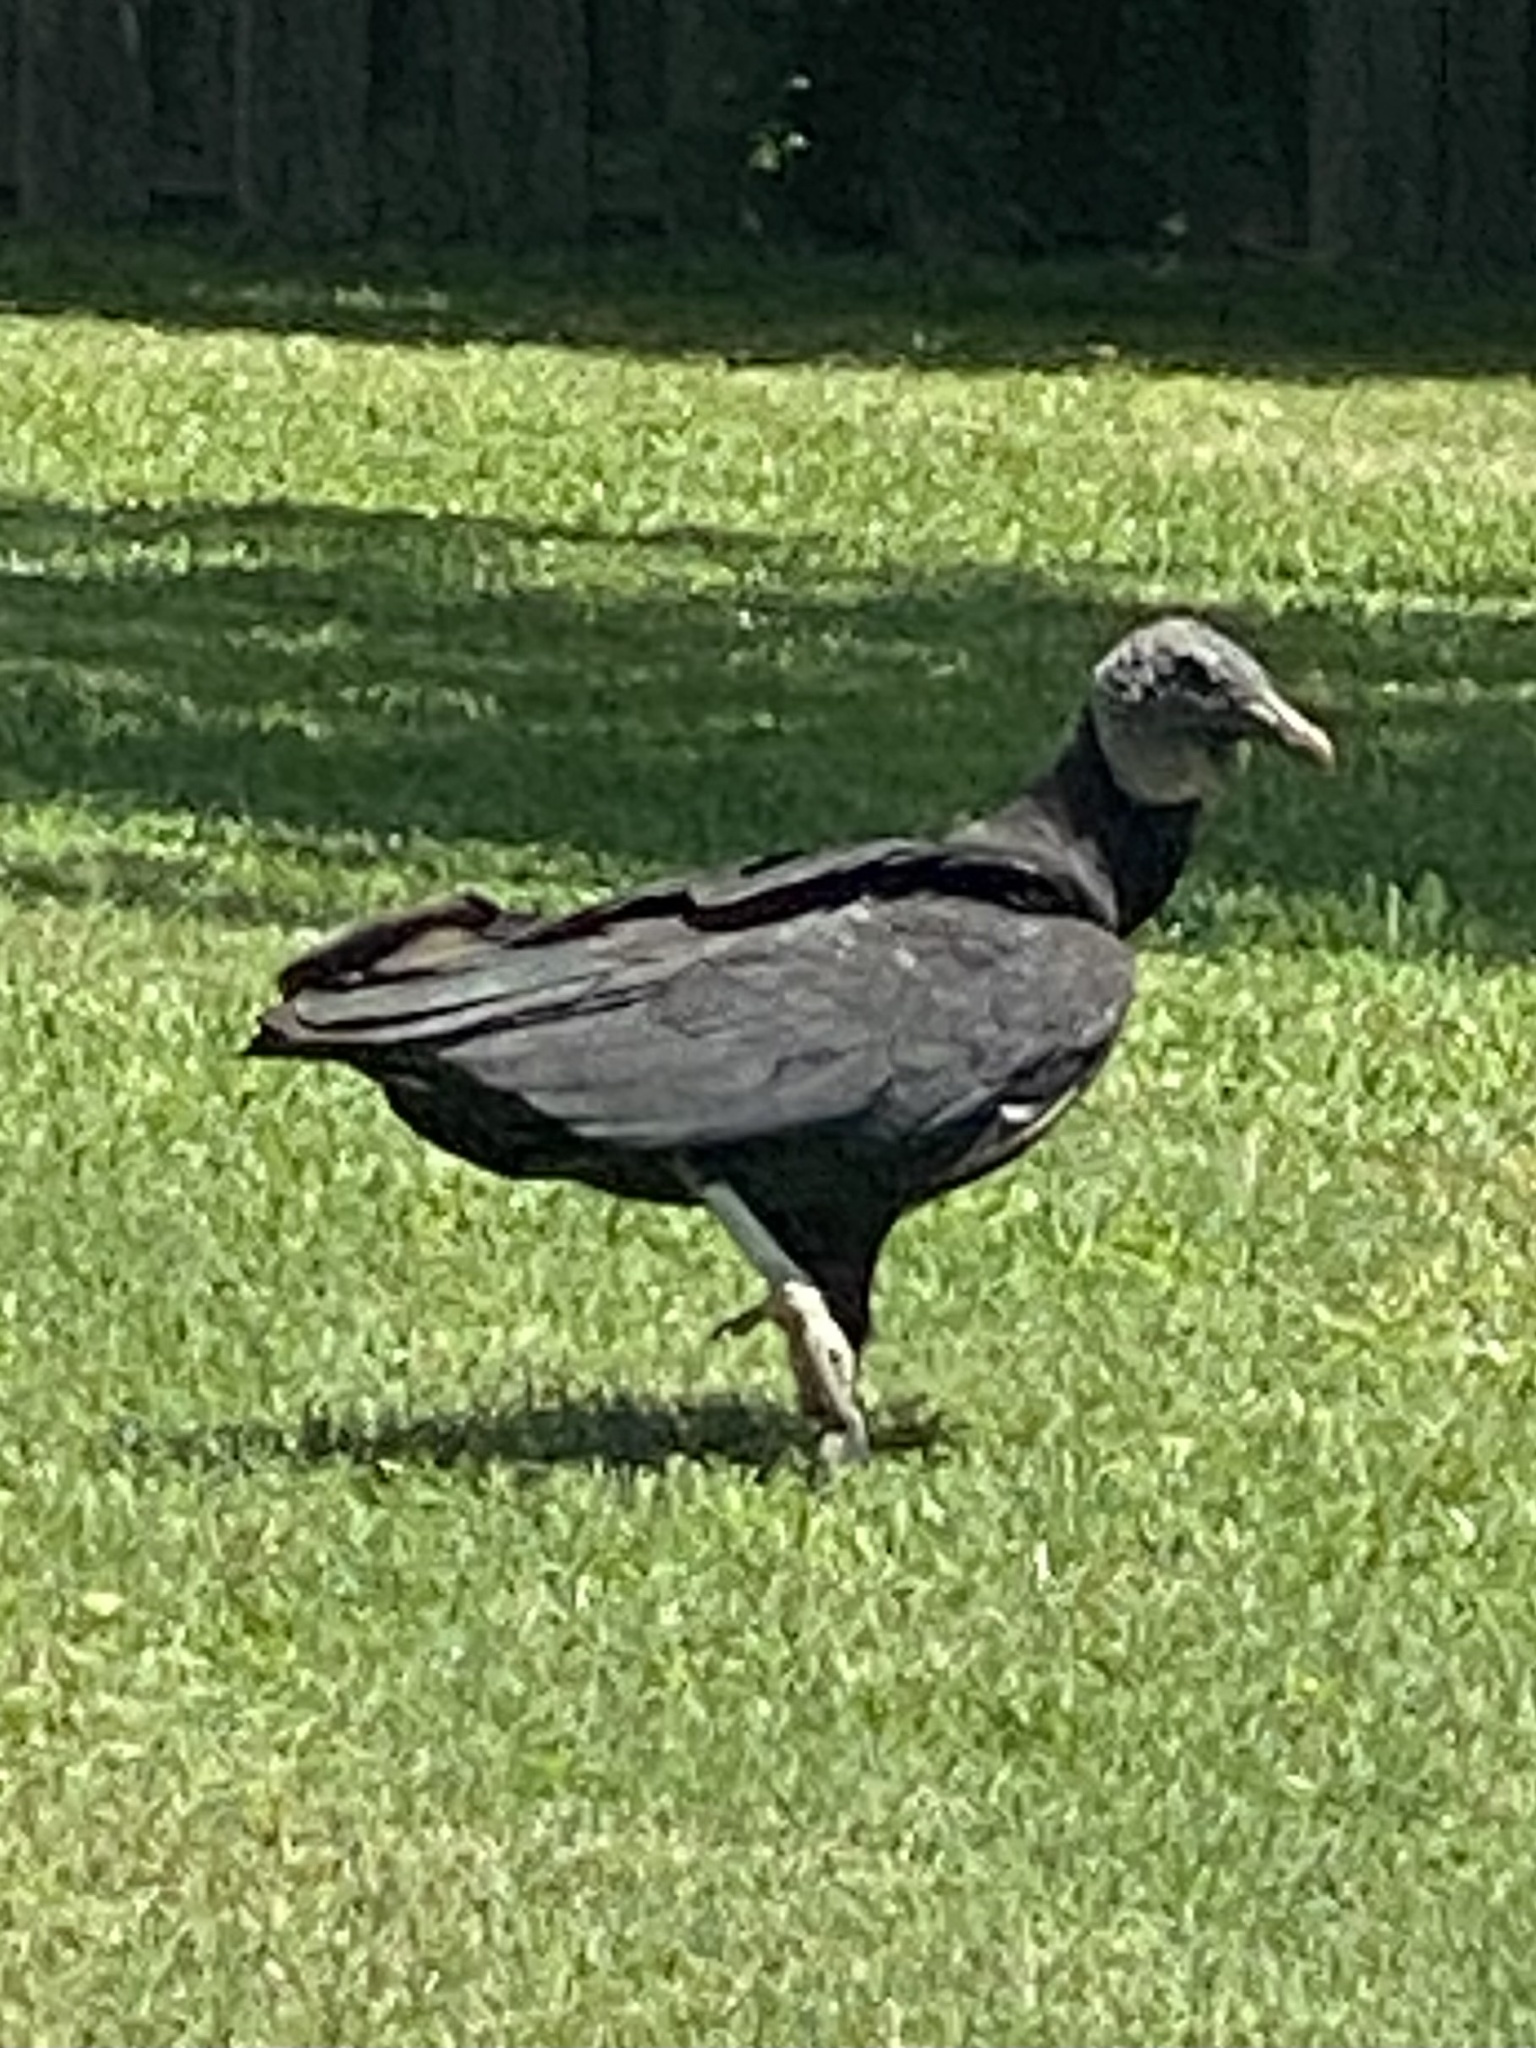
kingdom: Animalia
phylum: Chordata
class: Aves
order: Accipitriformes
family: Cathartidae
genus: Coragyps
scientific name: Coragyps atratus
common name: Black vulture
